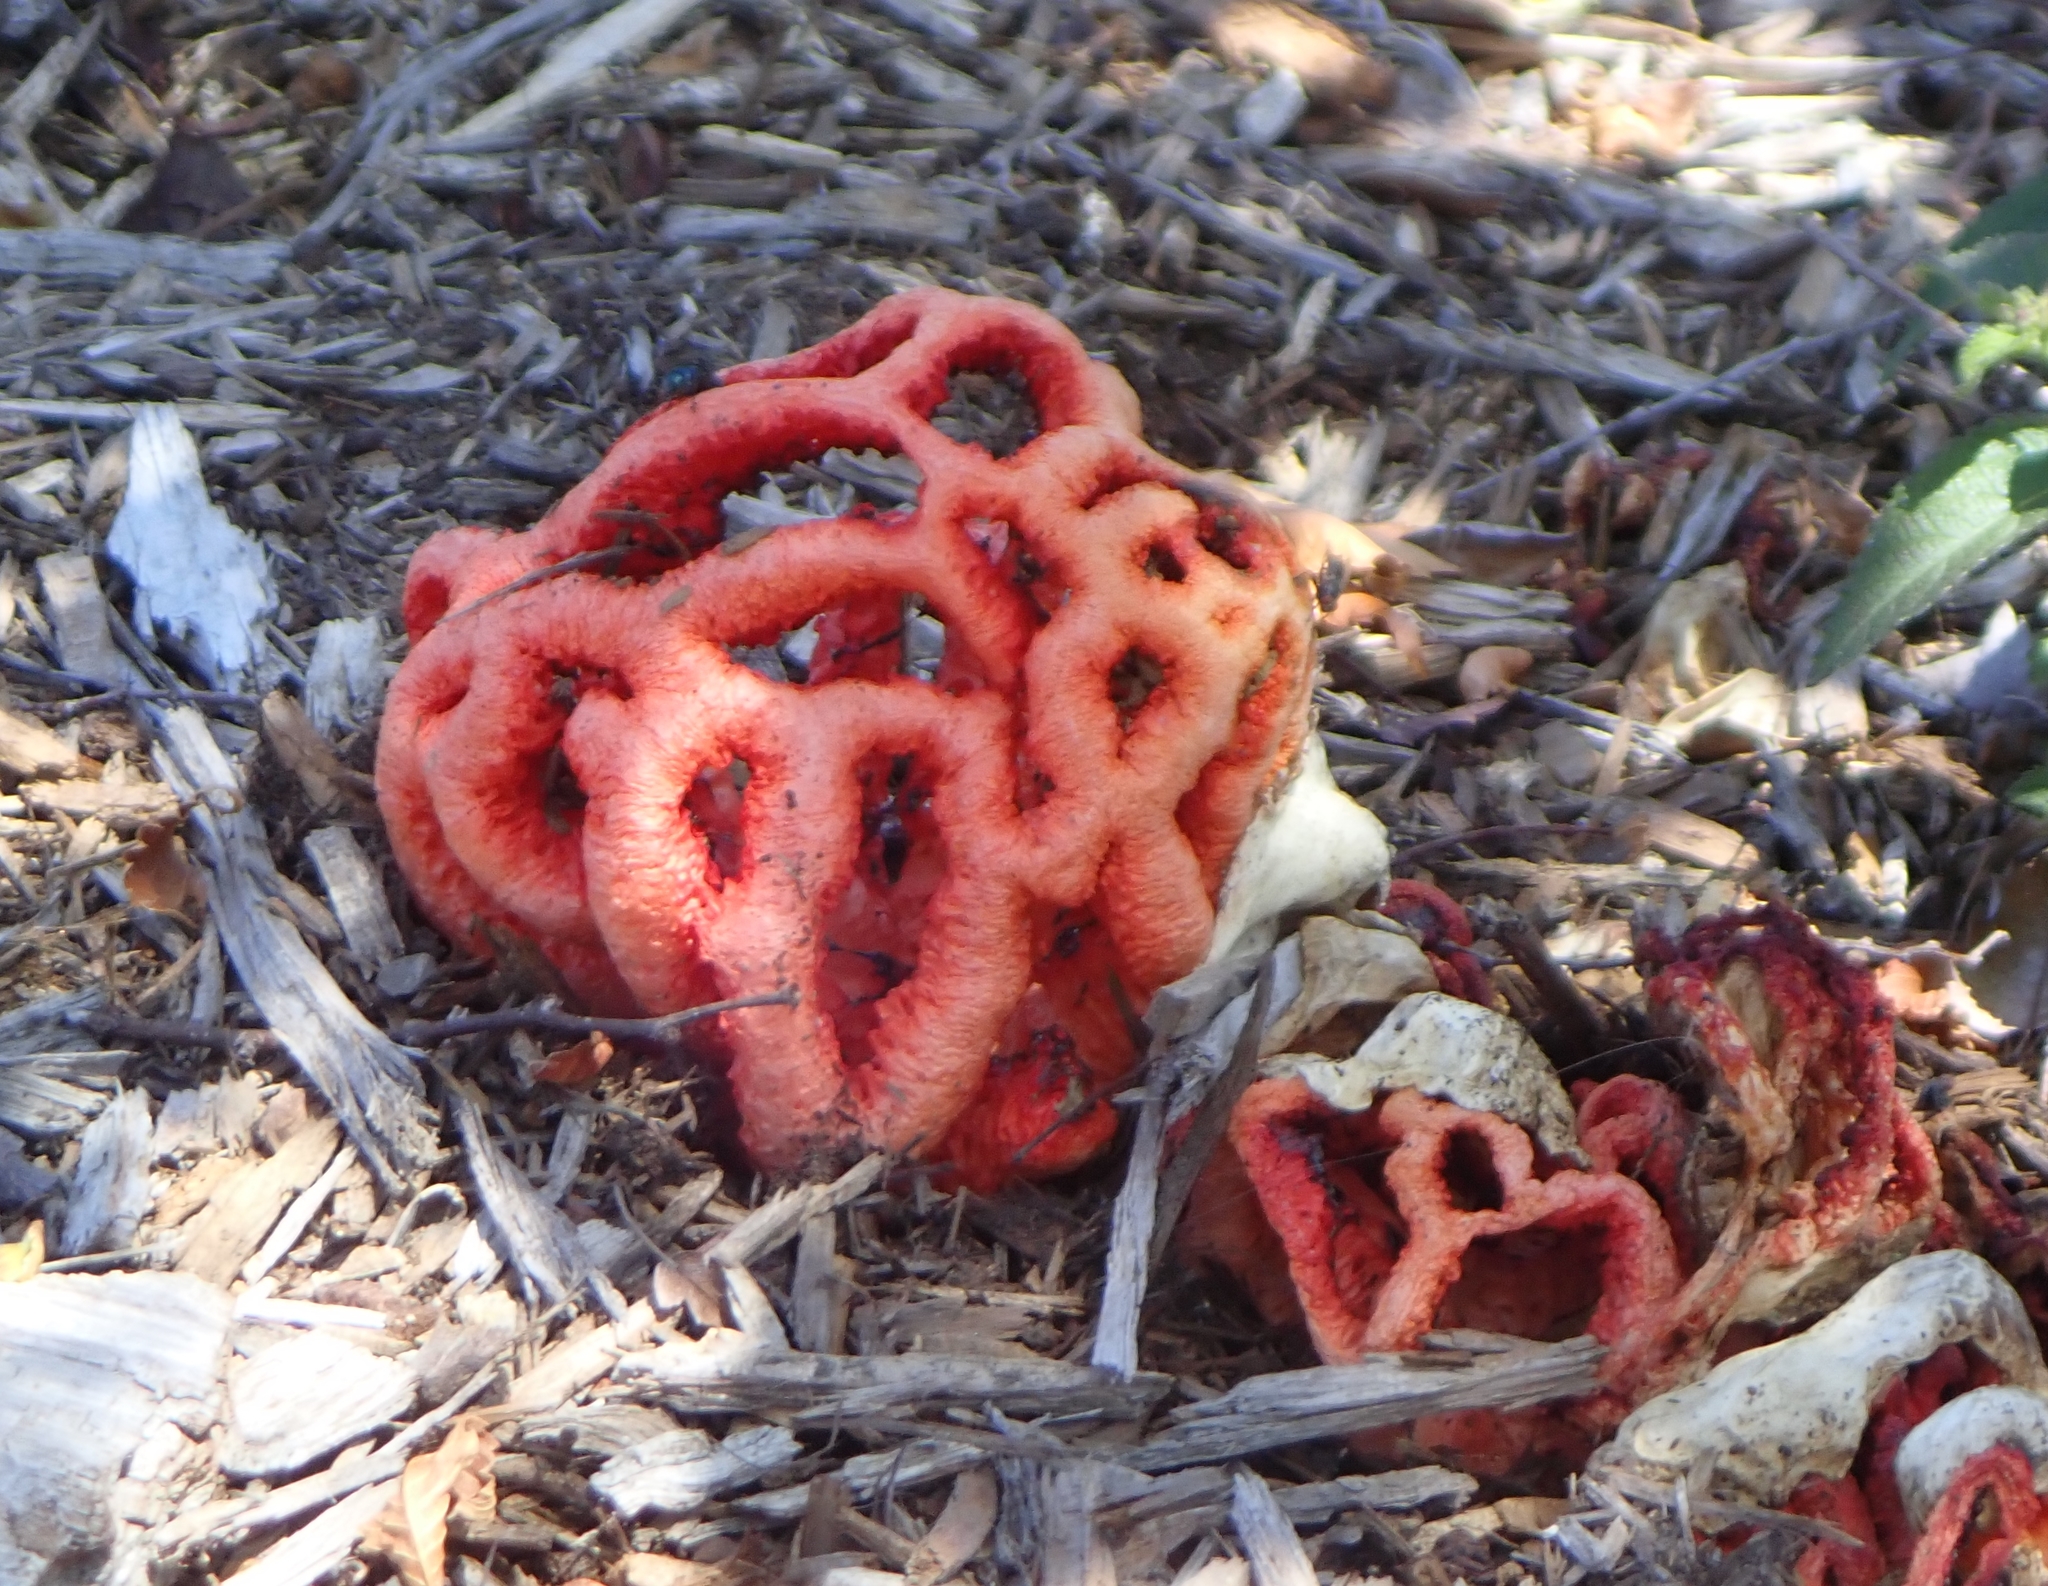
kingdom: Fungi
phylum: Basidiomycota
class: Agaricomycetes
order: Phallales
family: Phallaceae
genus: Clathrus
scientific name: Clathrus ruber
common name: Red cage
